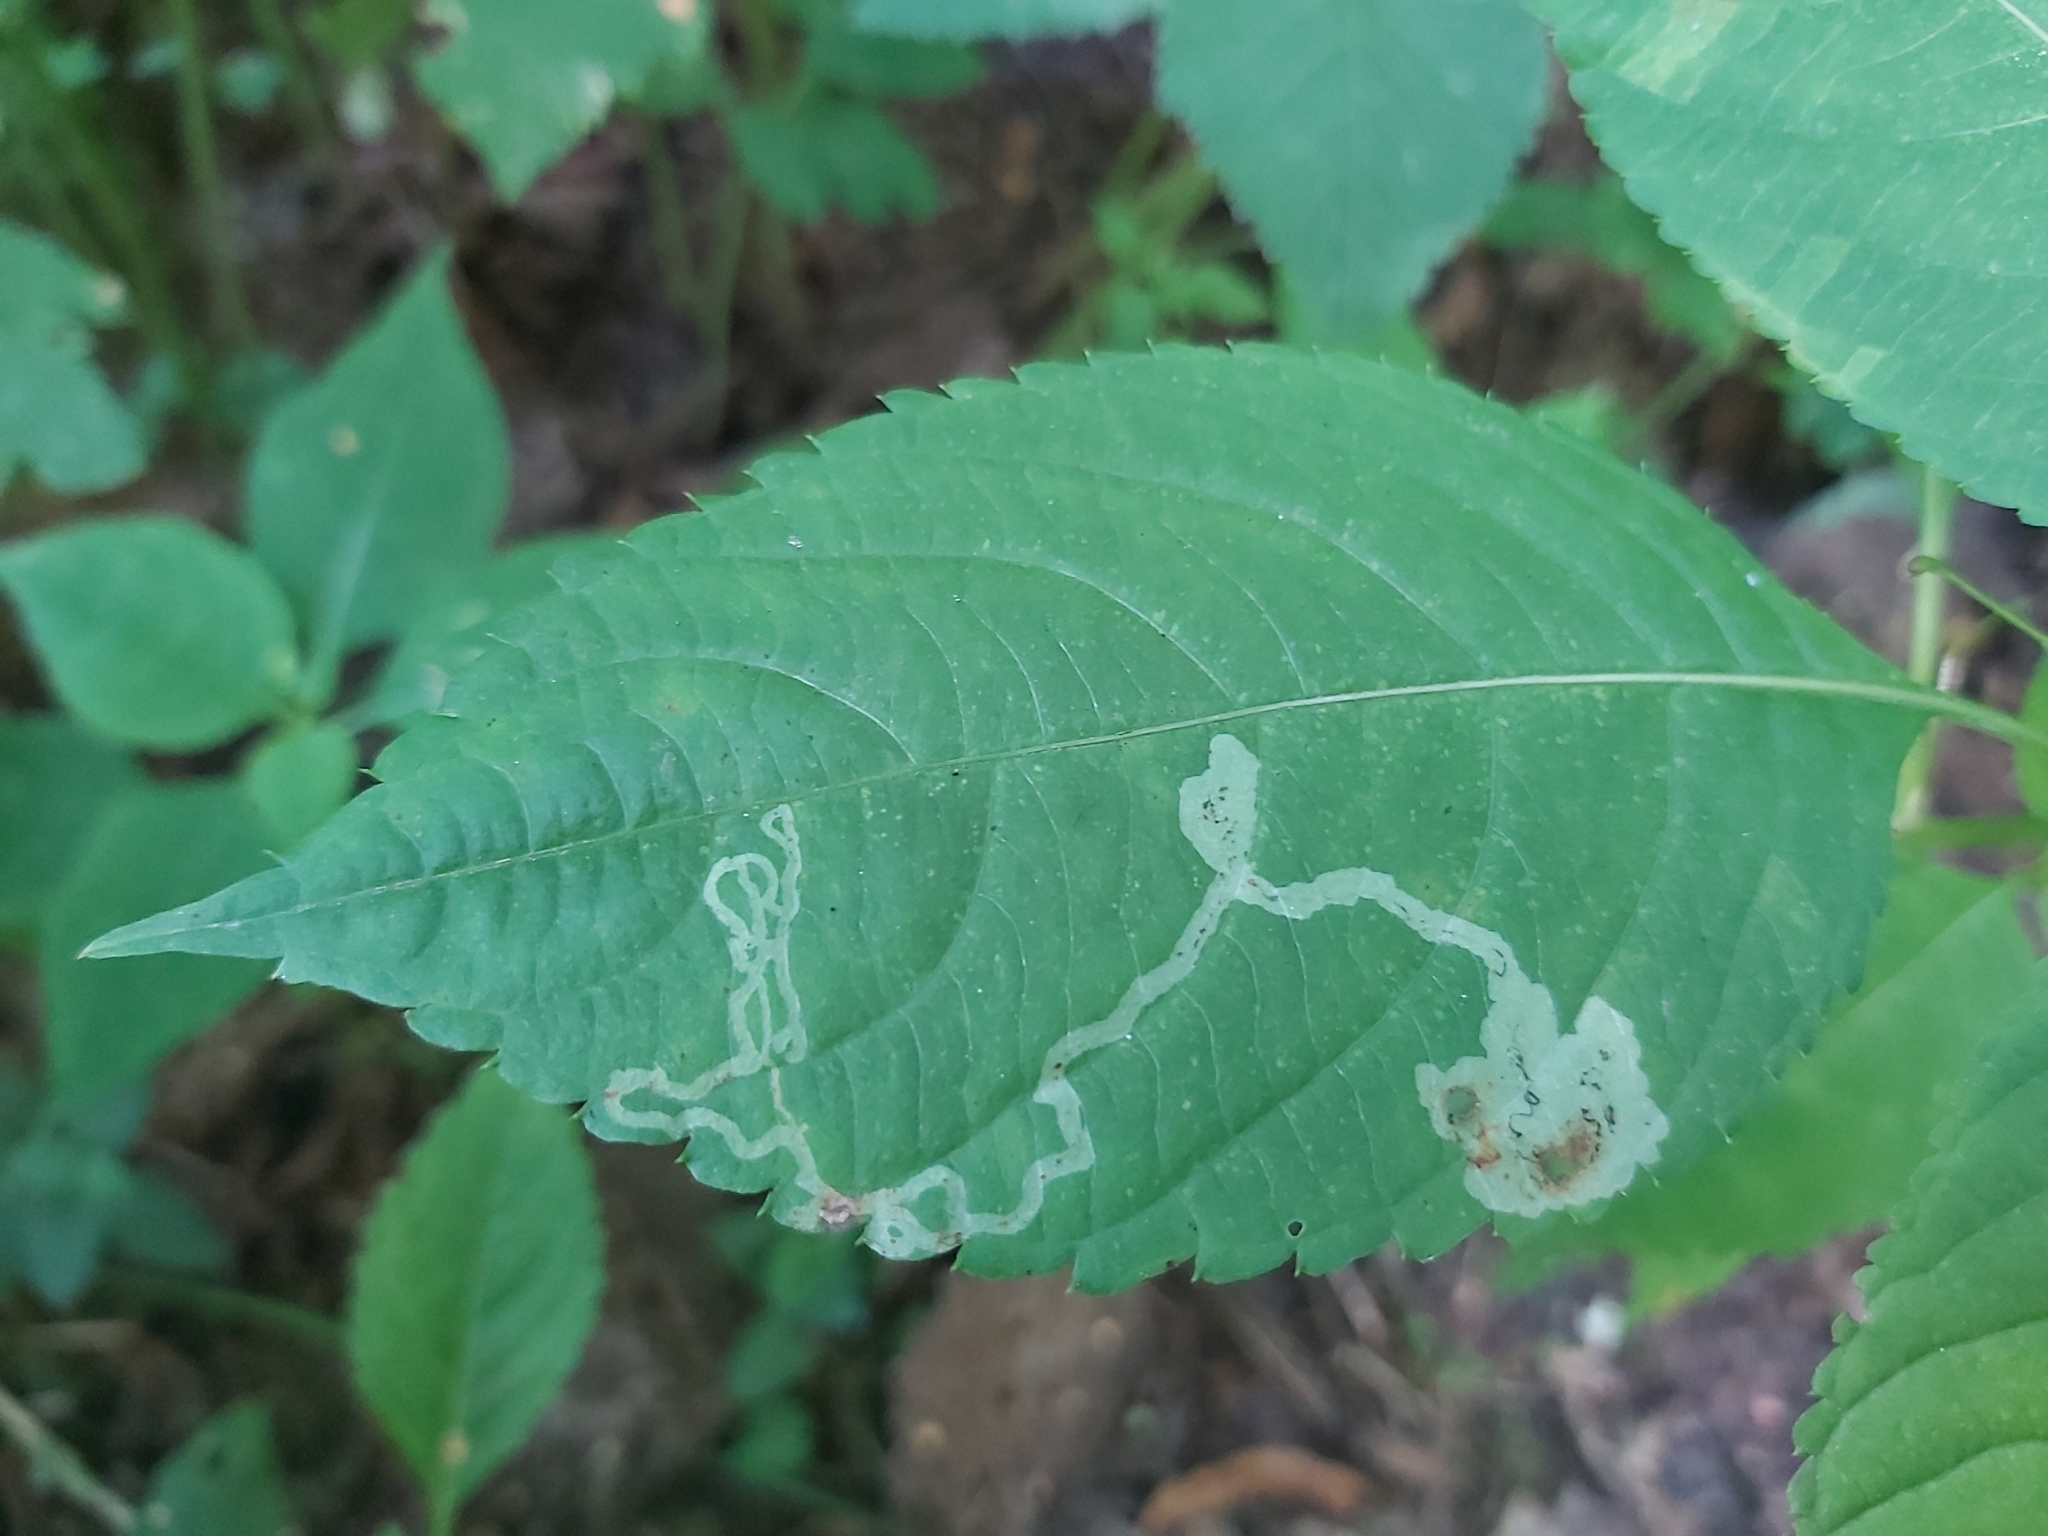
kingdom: Animalia
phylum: Arthropoda
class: Insecta
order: Diptera
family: Agromyzidae
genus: Phytoliriomyza
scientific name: Phytoliriomyza melampyga
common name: Jewelweed leaf-miner fly
